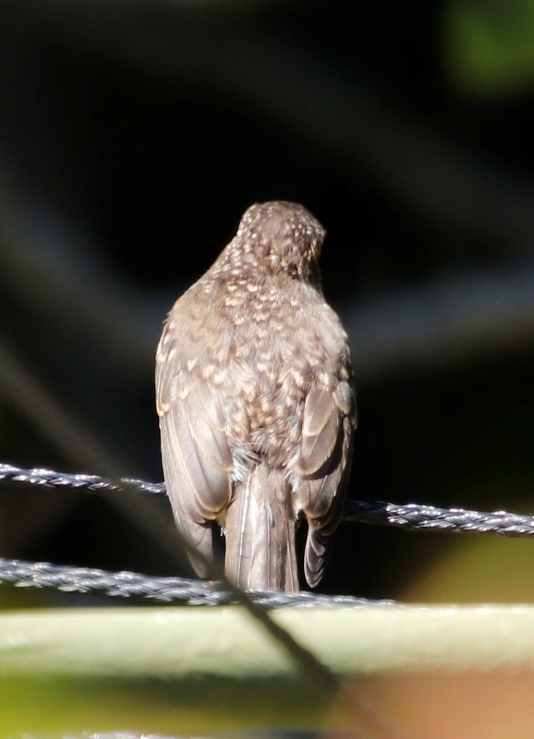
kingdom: Animalia
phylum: Chordata
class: Aves
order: Passeriformes
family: Muscicapidae
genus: Muscicapa
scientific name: Muscicapa adusta
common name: African dusky flycatcher
